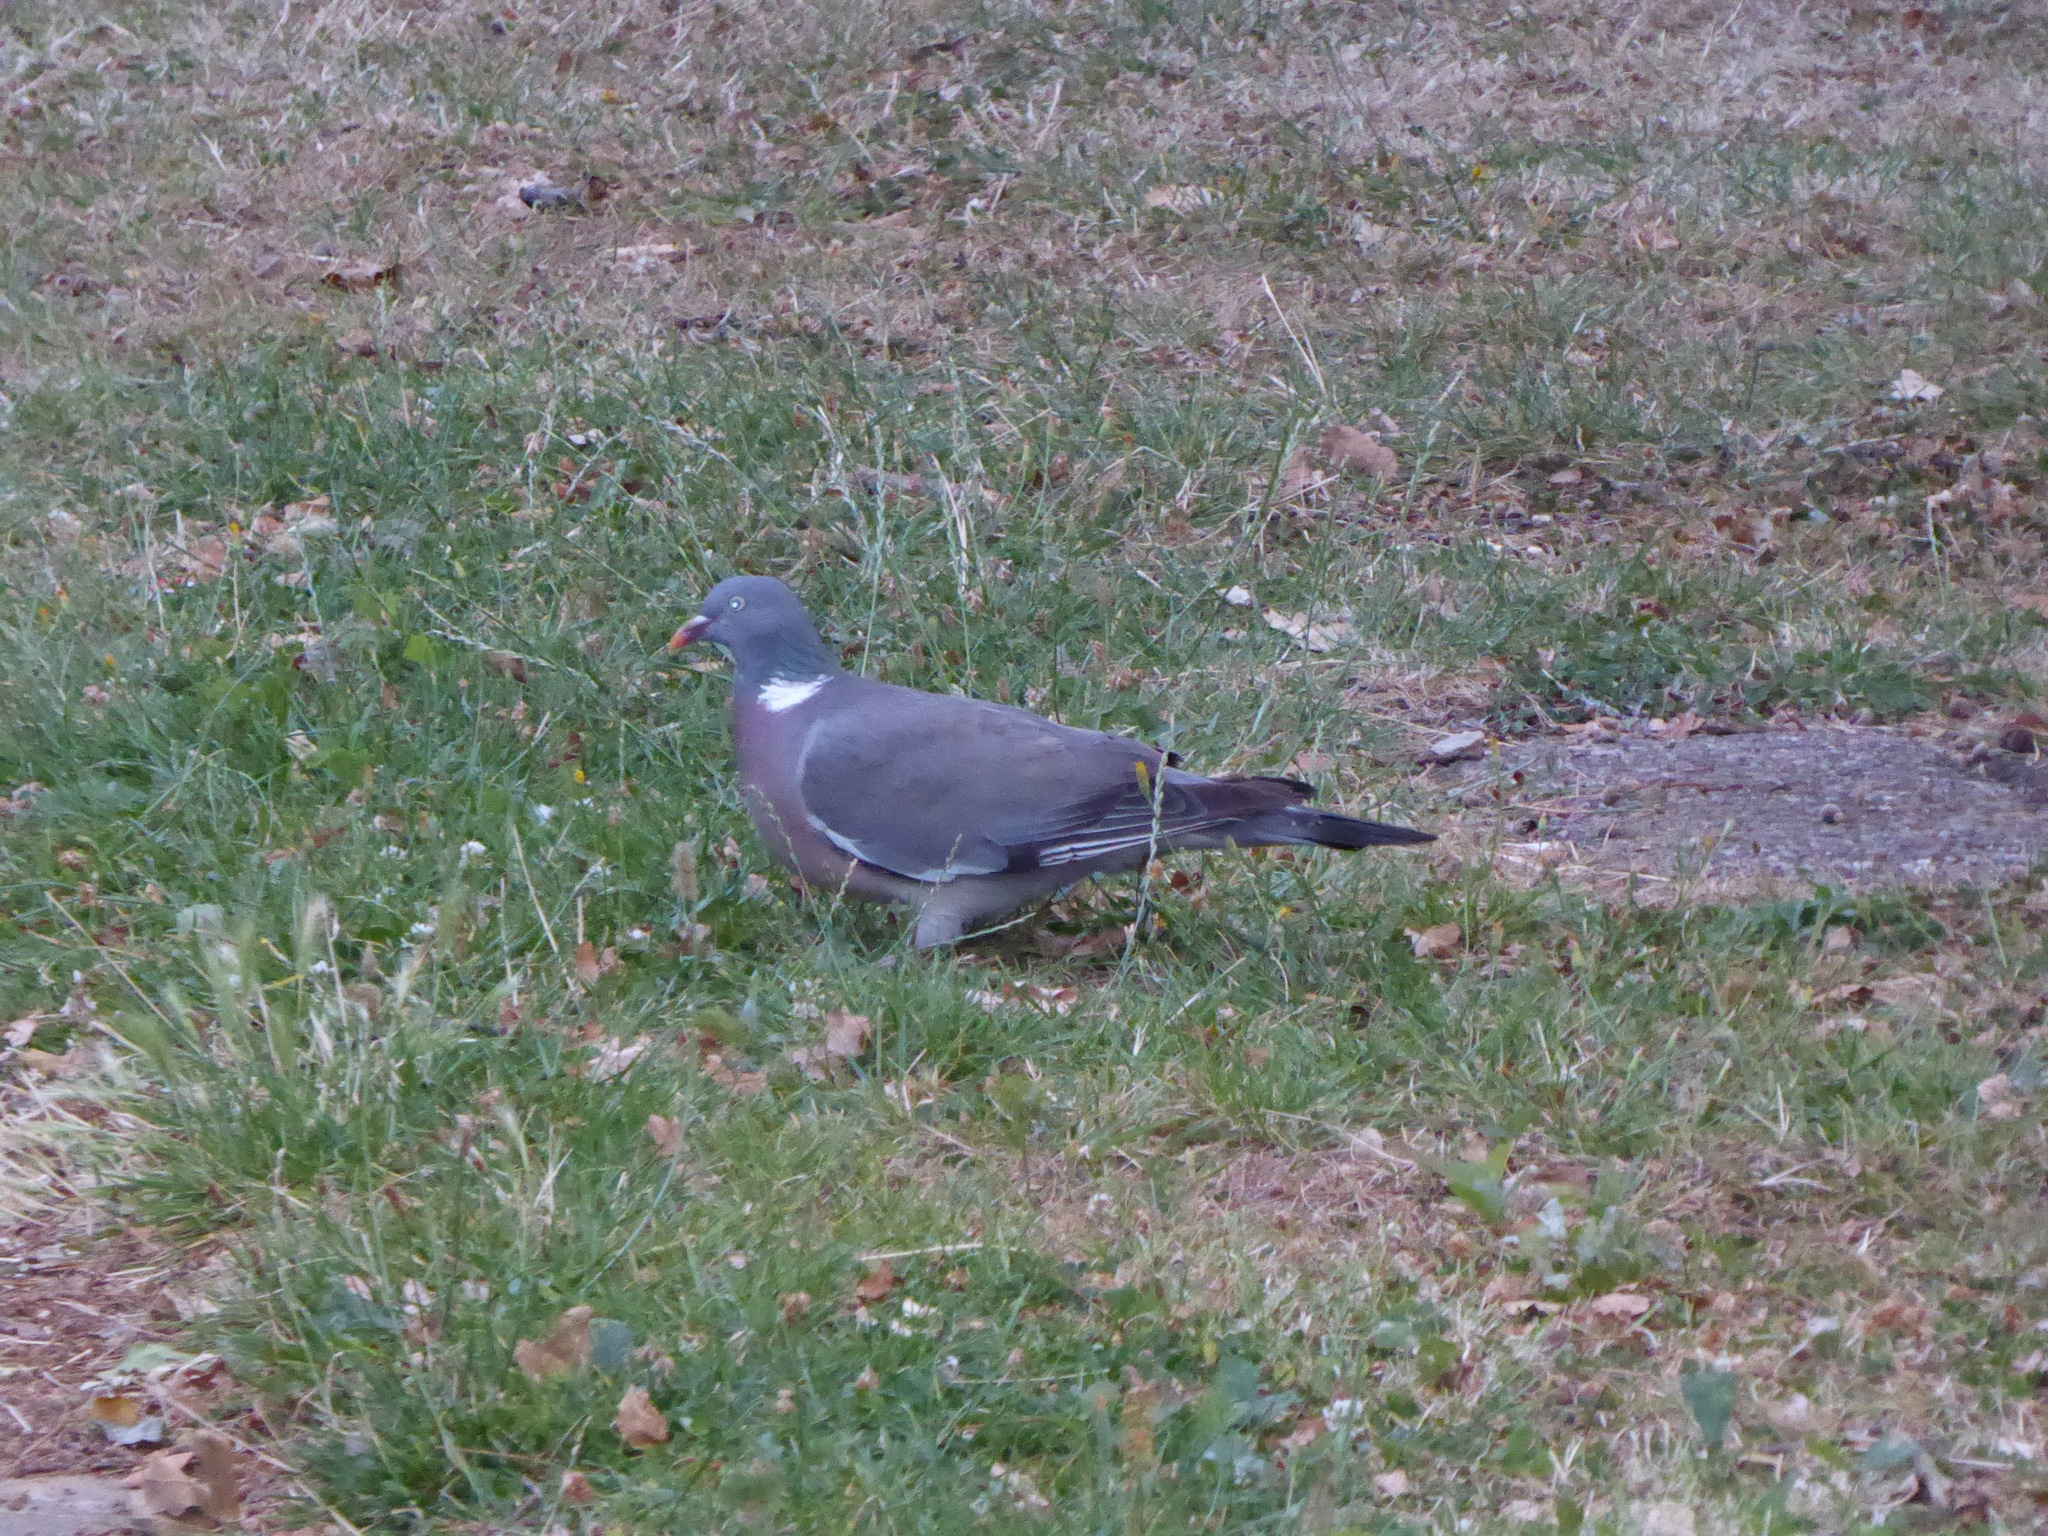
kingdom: Animalia
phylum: Chordata
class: Aves
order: Columbiformes
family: Columbidae
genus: Columba
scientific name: Columba palumbus
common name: Common wood pigeon
